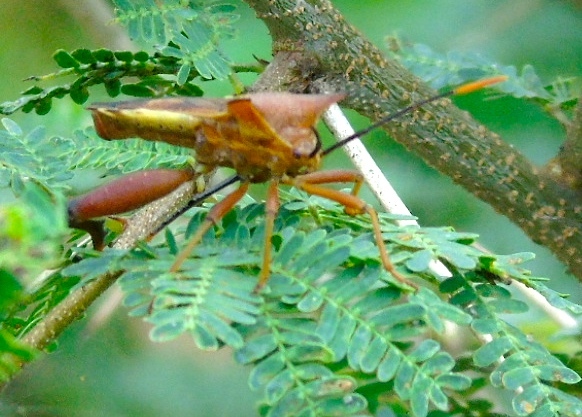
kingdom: Animalia
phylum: Arthropoda
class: Insecta
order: Hemiptera
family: Coreidae
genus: Mozena
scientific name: Mozena lunata
